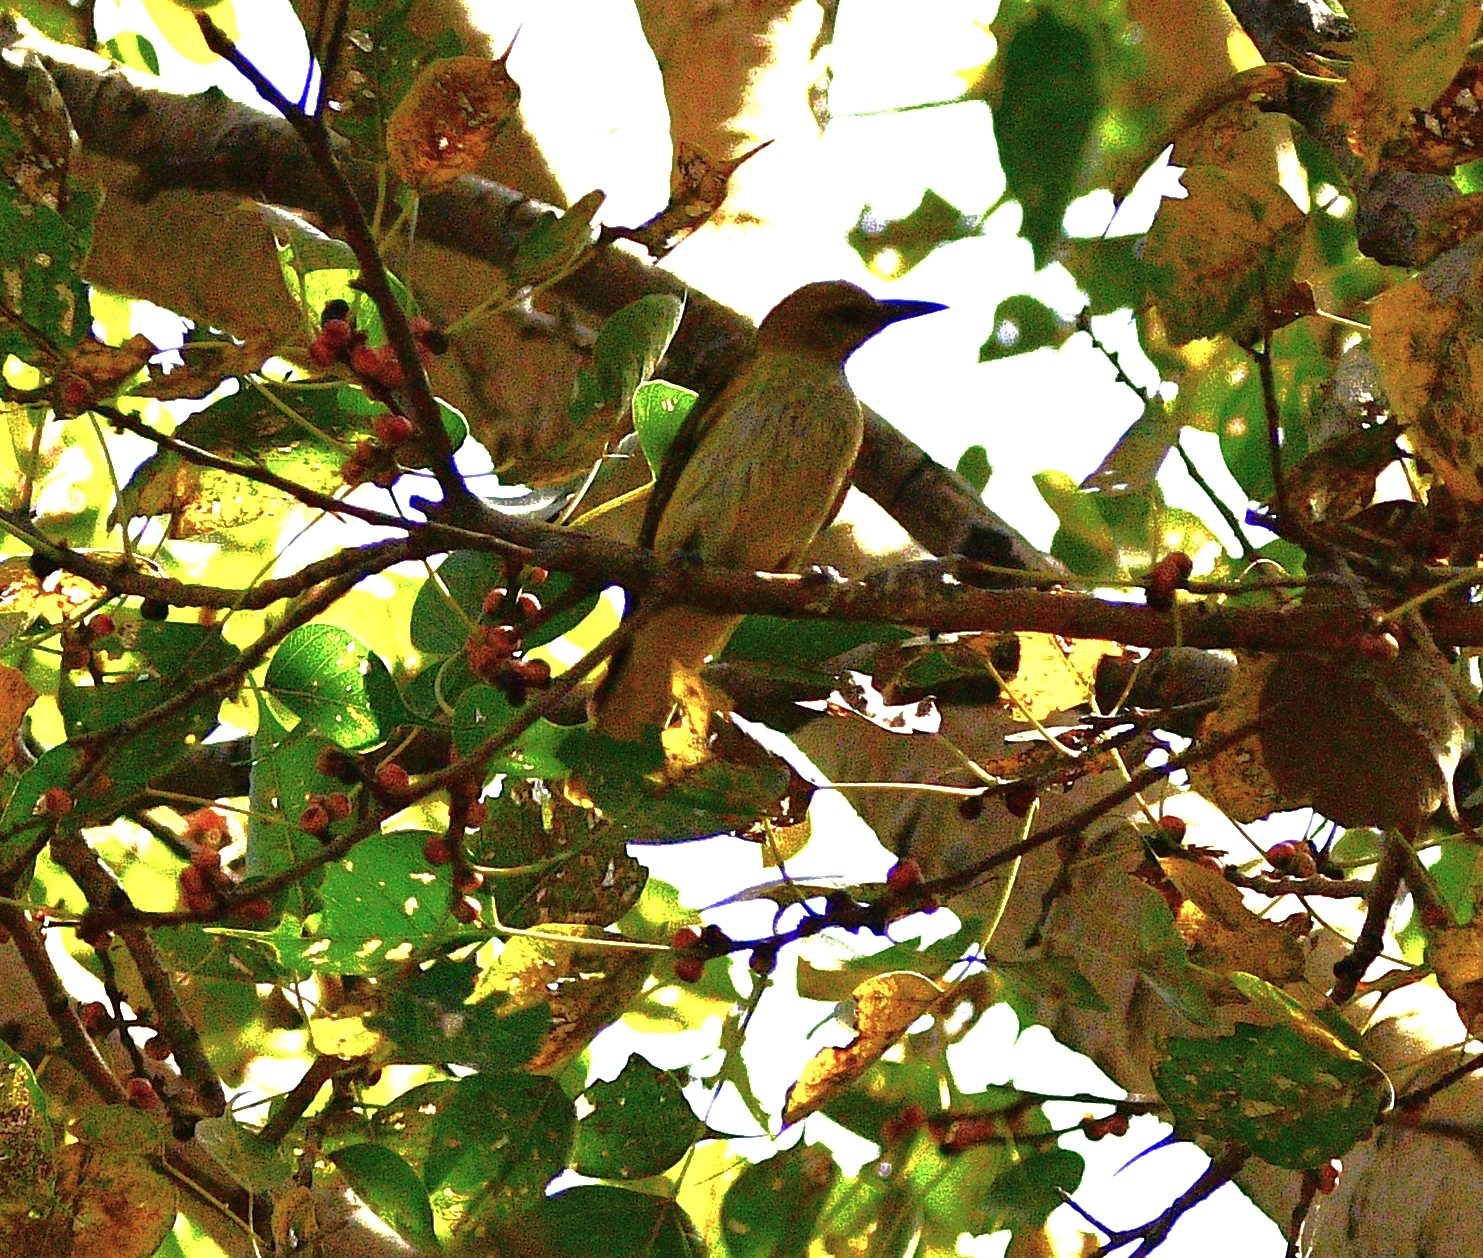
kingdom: Animalia
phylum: Chordata
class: Aves
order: Passeriformes
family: Oriolidae
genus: Oriolus
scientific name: Oriolus kundoo
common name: Indian golden oriole
